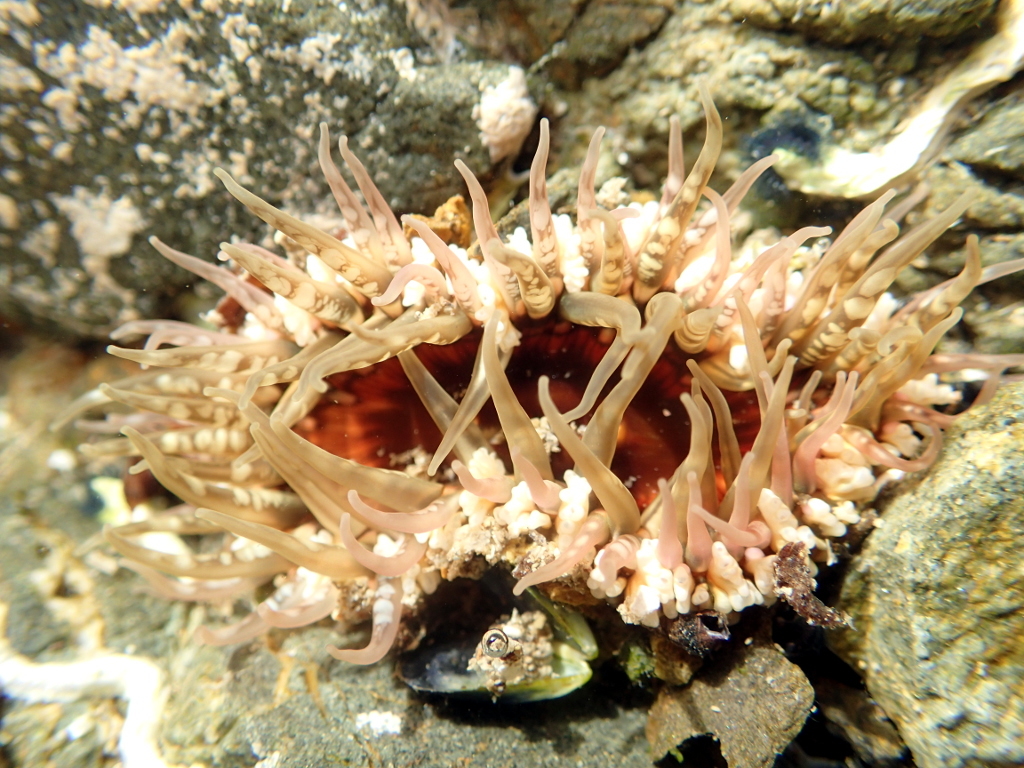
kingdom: Animalia
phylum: Cnidaria
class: Anthozoa
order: Actiniaria
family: Actiniidae
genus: Oulactis
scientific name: Oulactis muscosa
